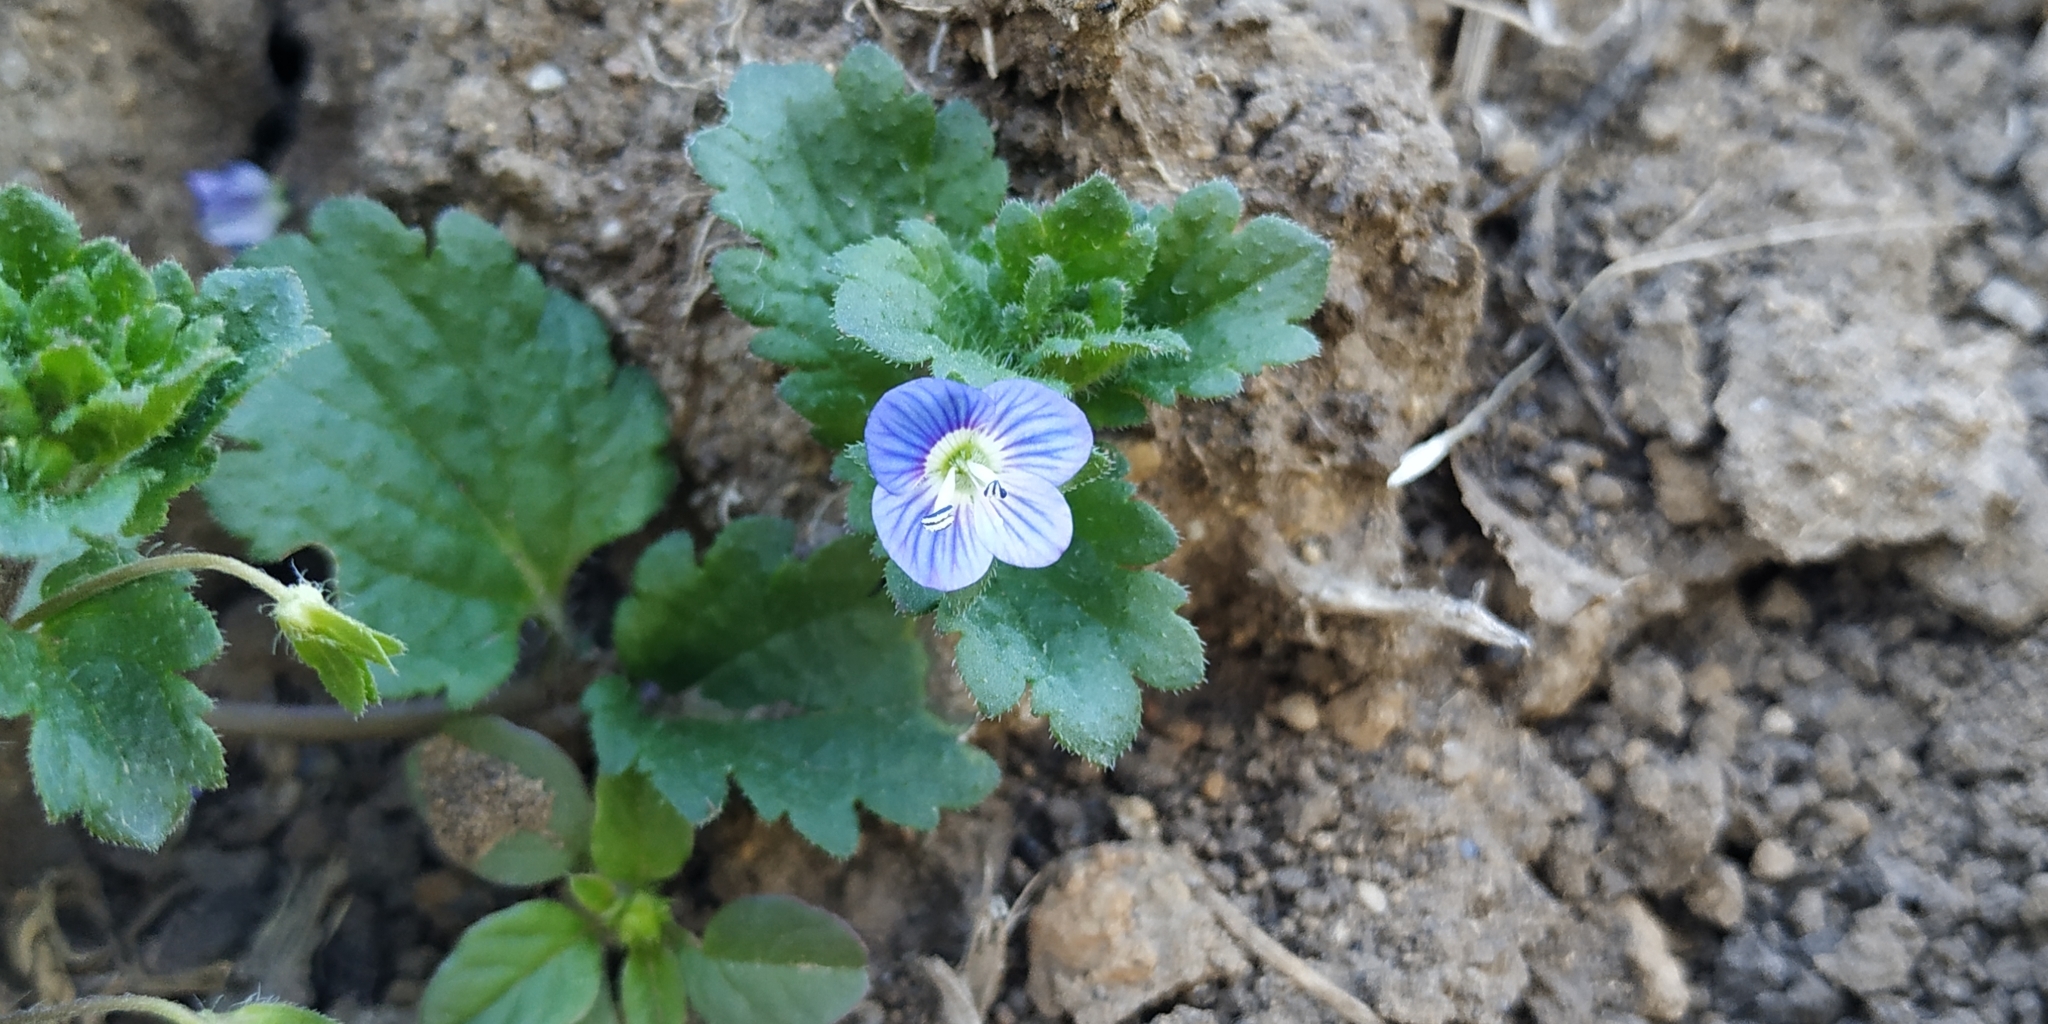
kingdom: Plantae
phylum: Tracheophyta
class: Magnoliopsida
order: Lamiales
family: Plantaginaceae
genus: Veronica
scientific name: Veronica persica
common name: Common field-speedwell
